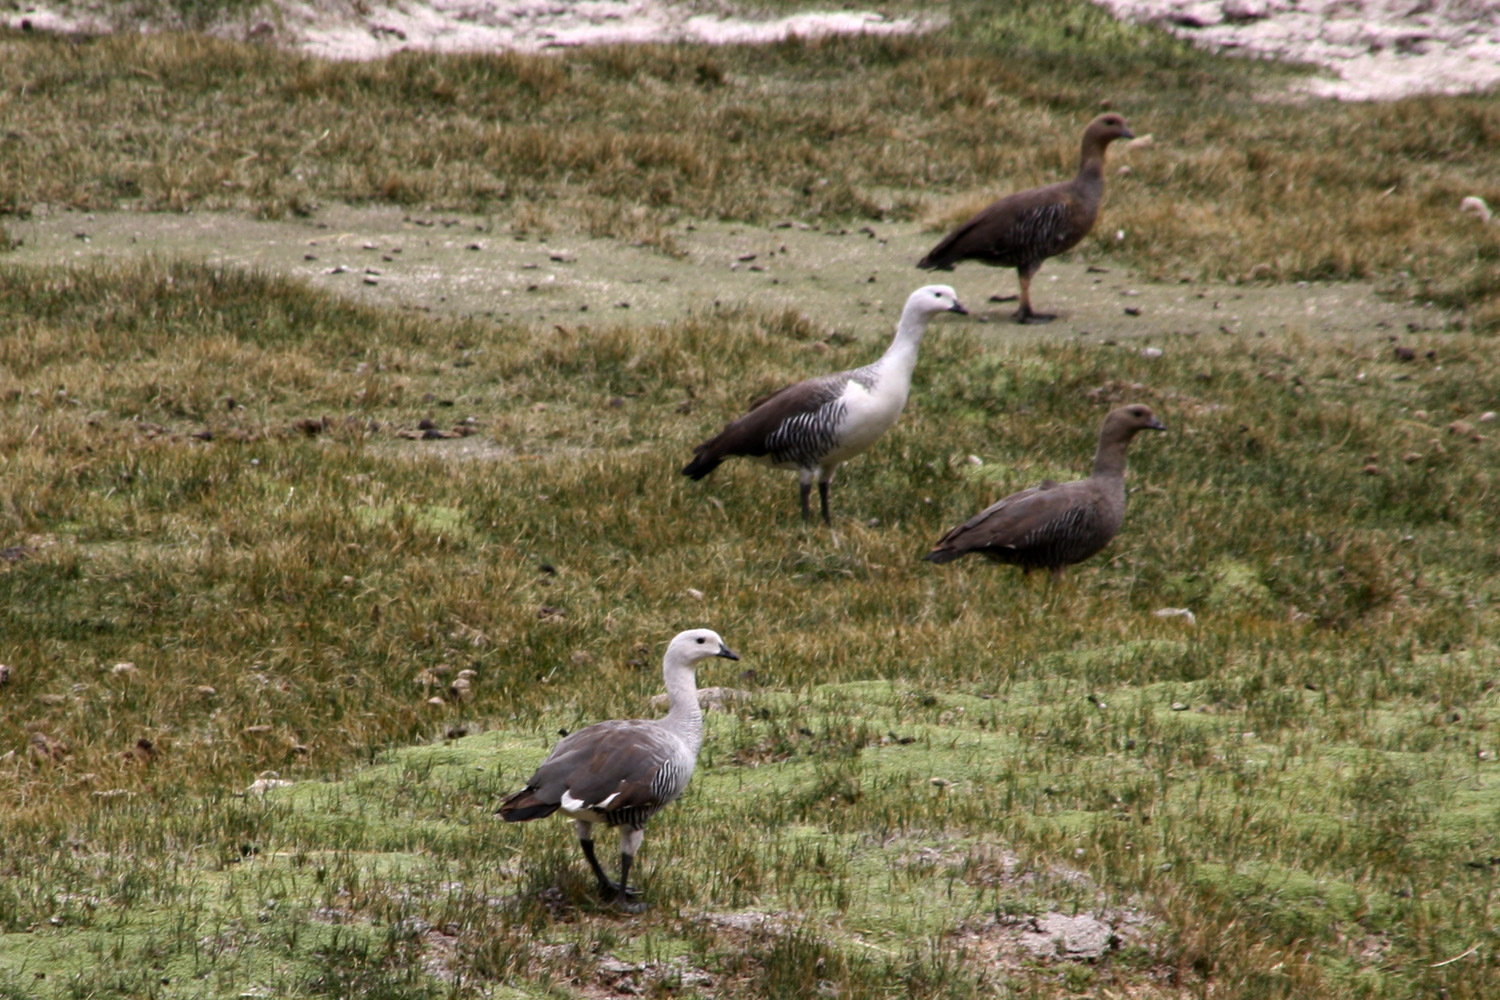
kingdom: Animalia
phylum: Chordata
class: Aves
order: Anseriformes
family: Anatidae
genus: Chloephaga
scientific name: Chloephaga picta
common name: Upland goose
